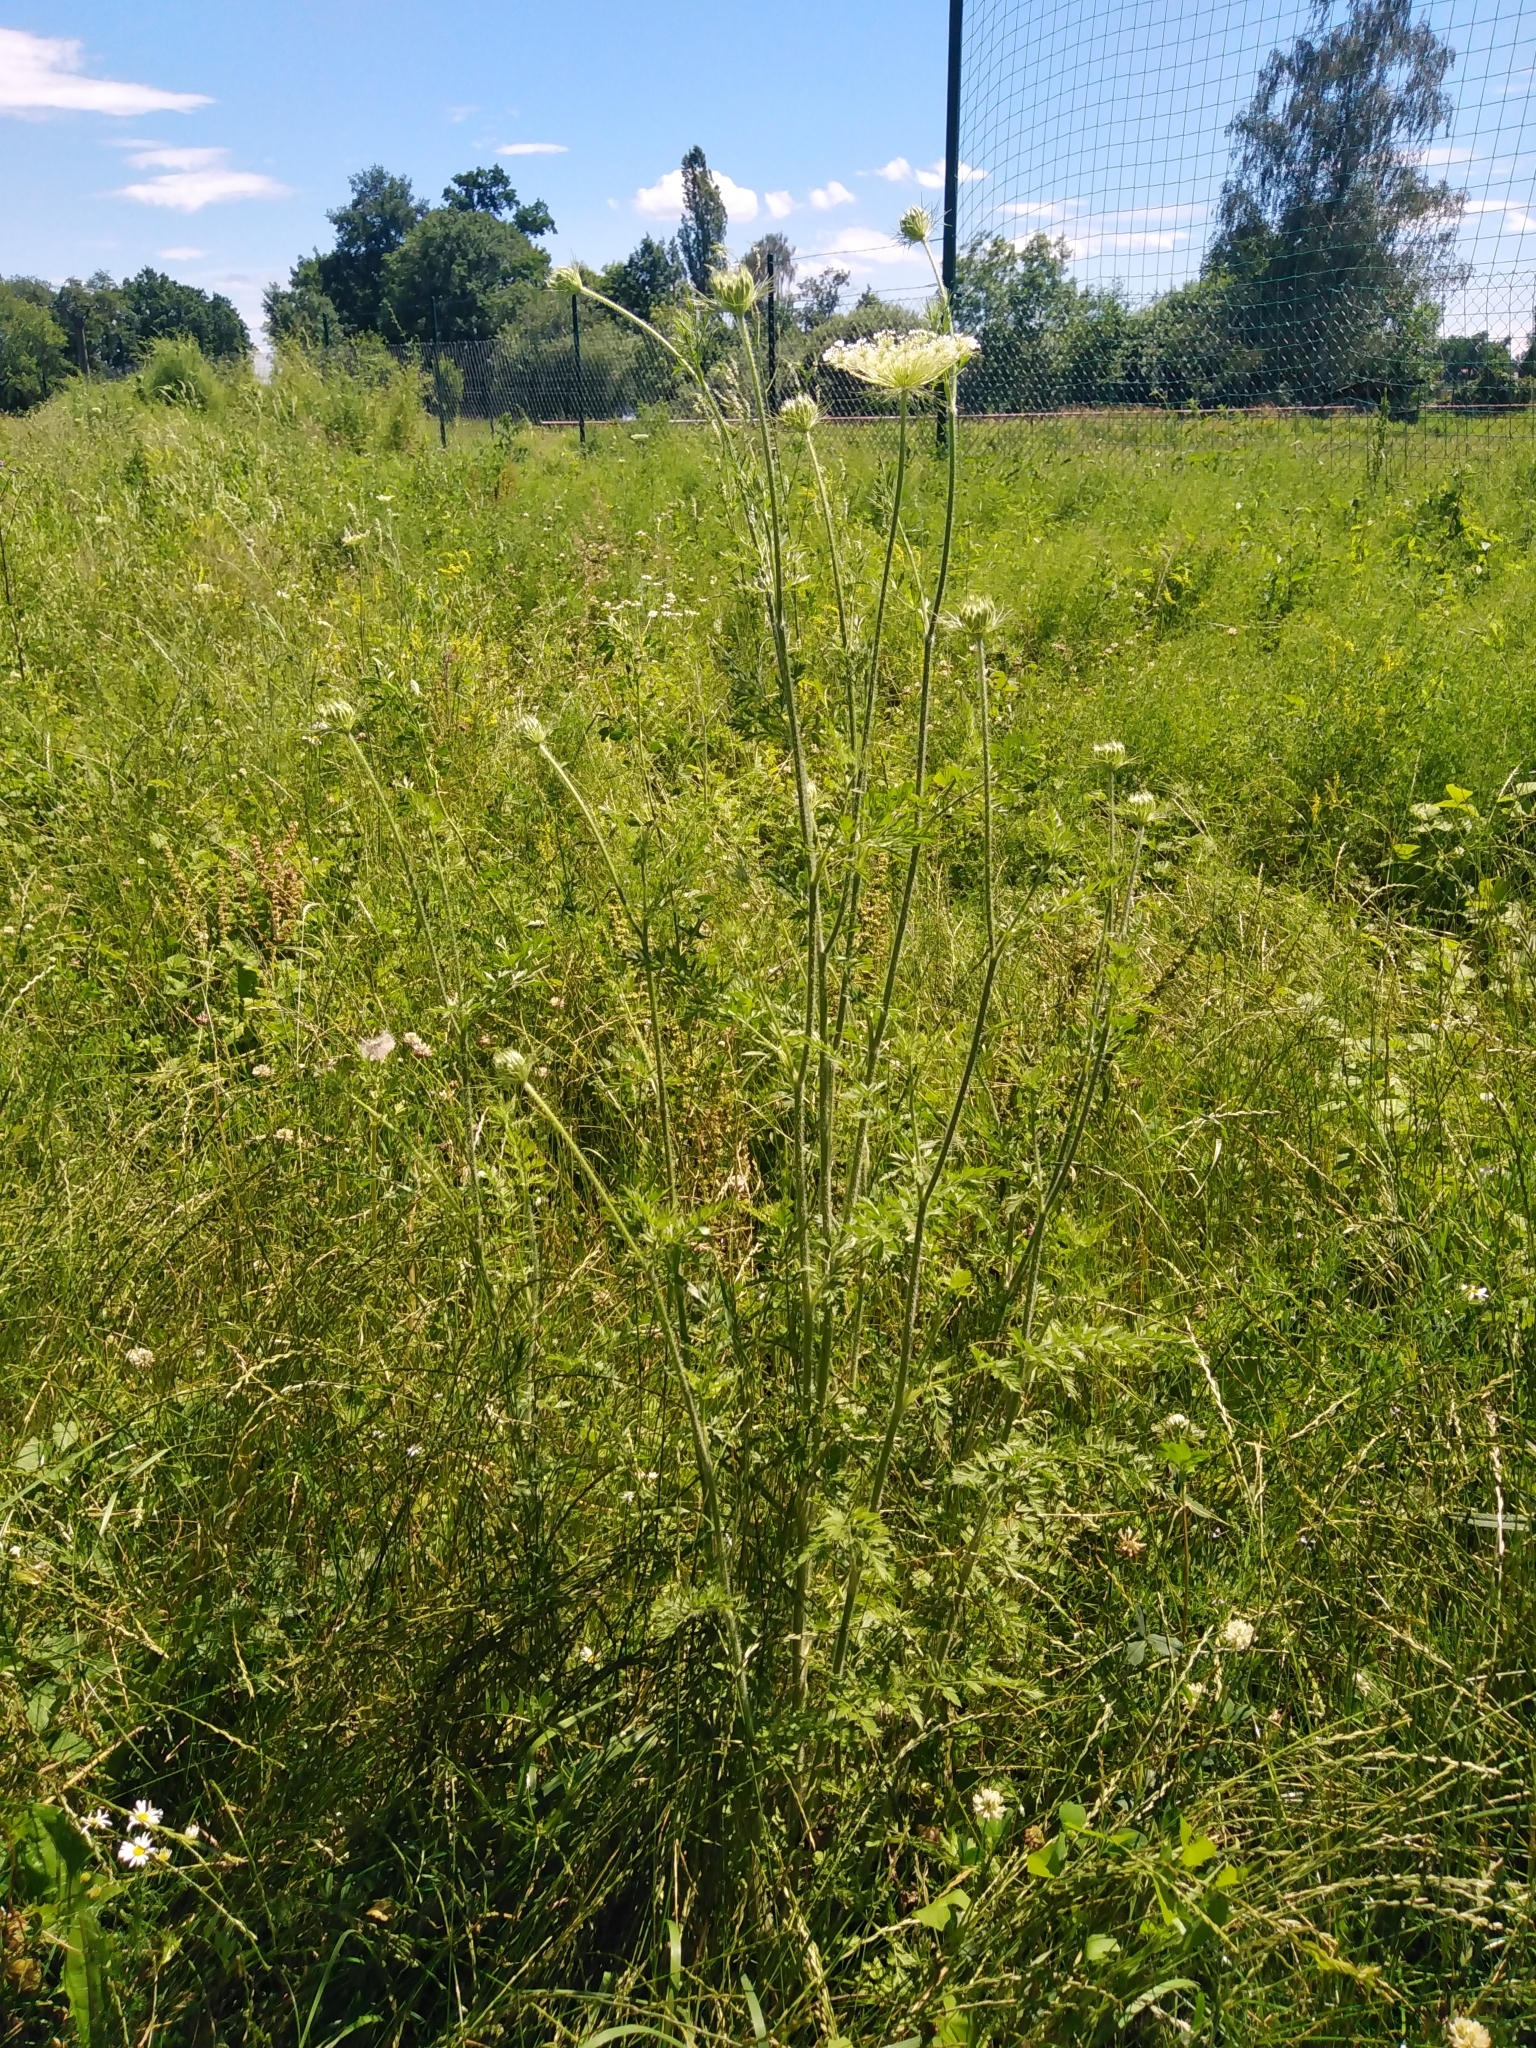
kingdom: Plantae
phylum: Tracheophyta
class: Magnoliopsida
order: Apiales
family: Apiaceae
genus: Daucus
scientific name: Daucus carota
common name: Wild carrot
